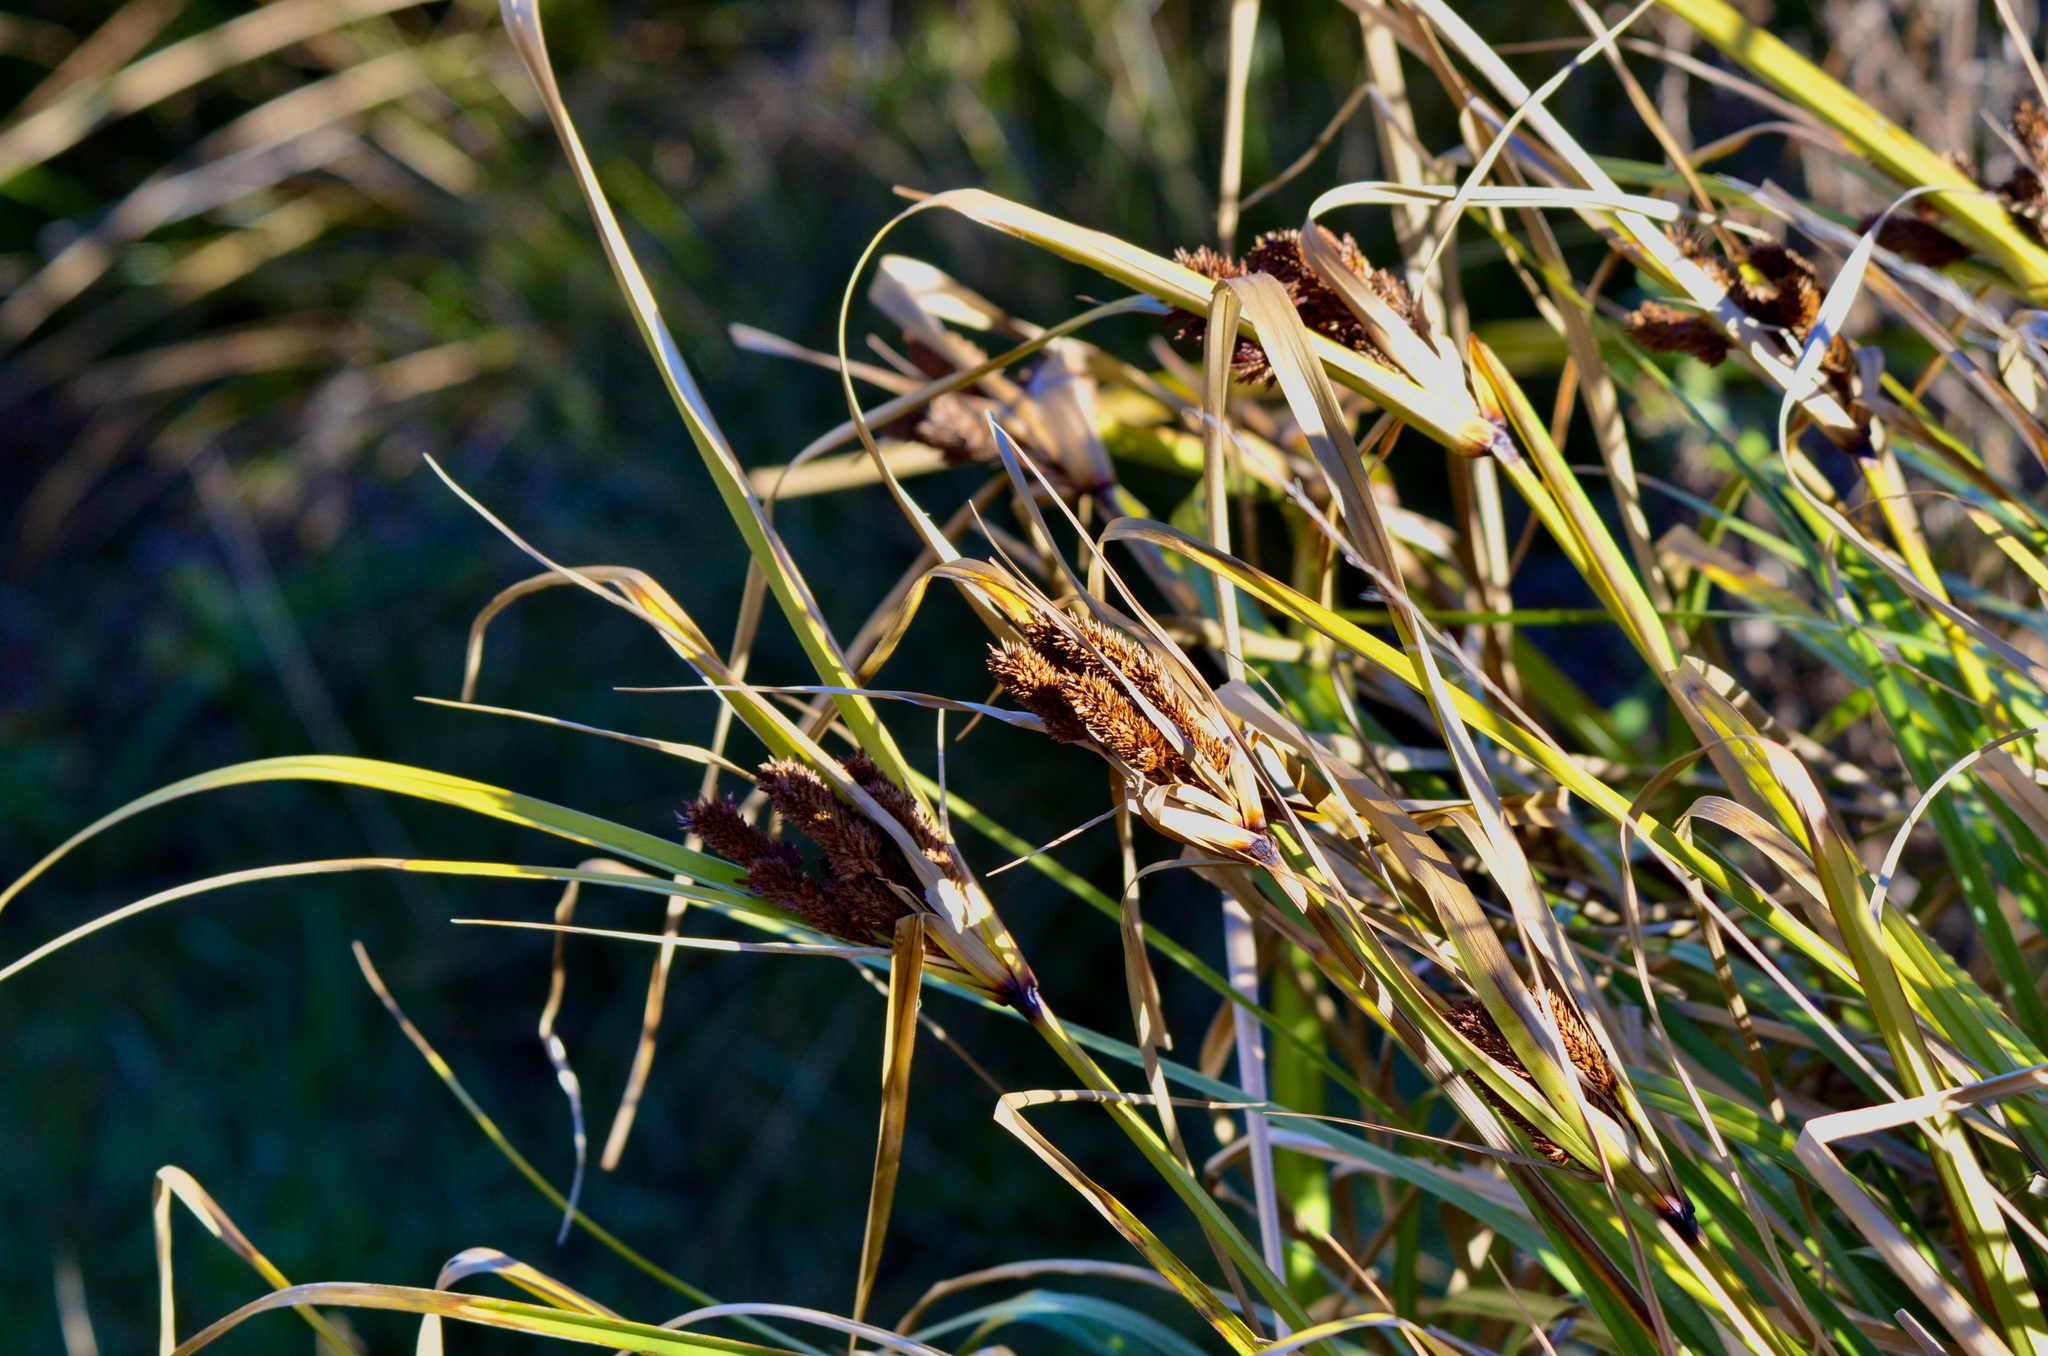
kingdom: Plantae
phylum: Tracheophyta
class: Liliopsida
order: Poales
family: Cyperaceae
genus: Cyperus
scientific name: Cyperus ustulatus
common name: Giant umbrella-sedge
